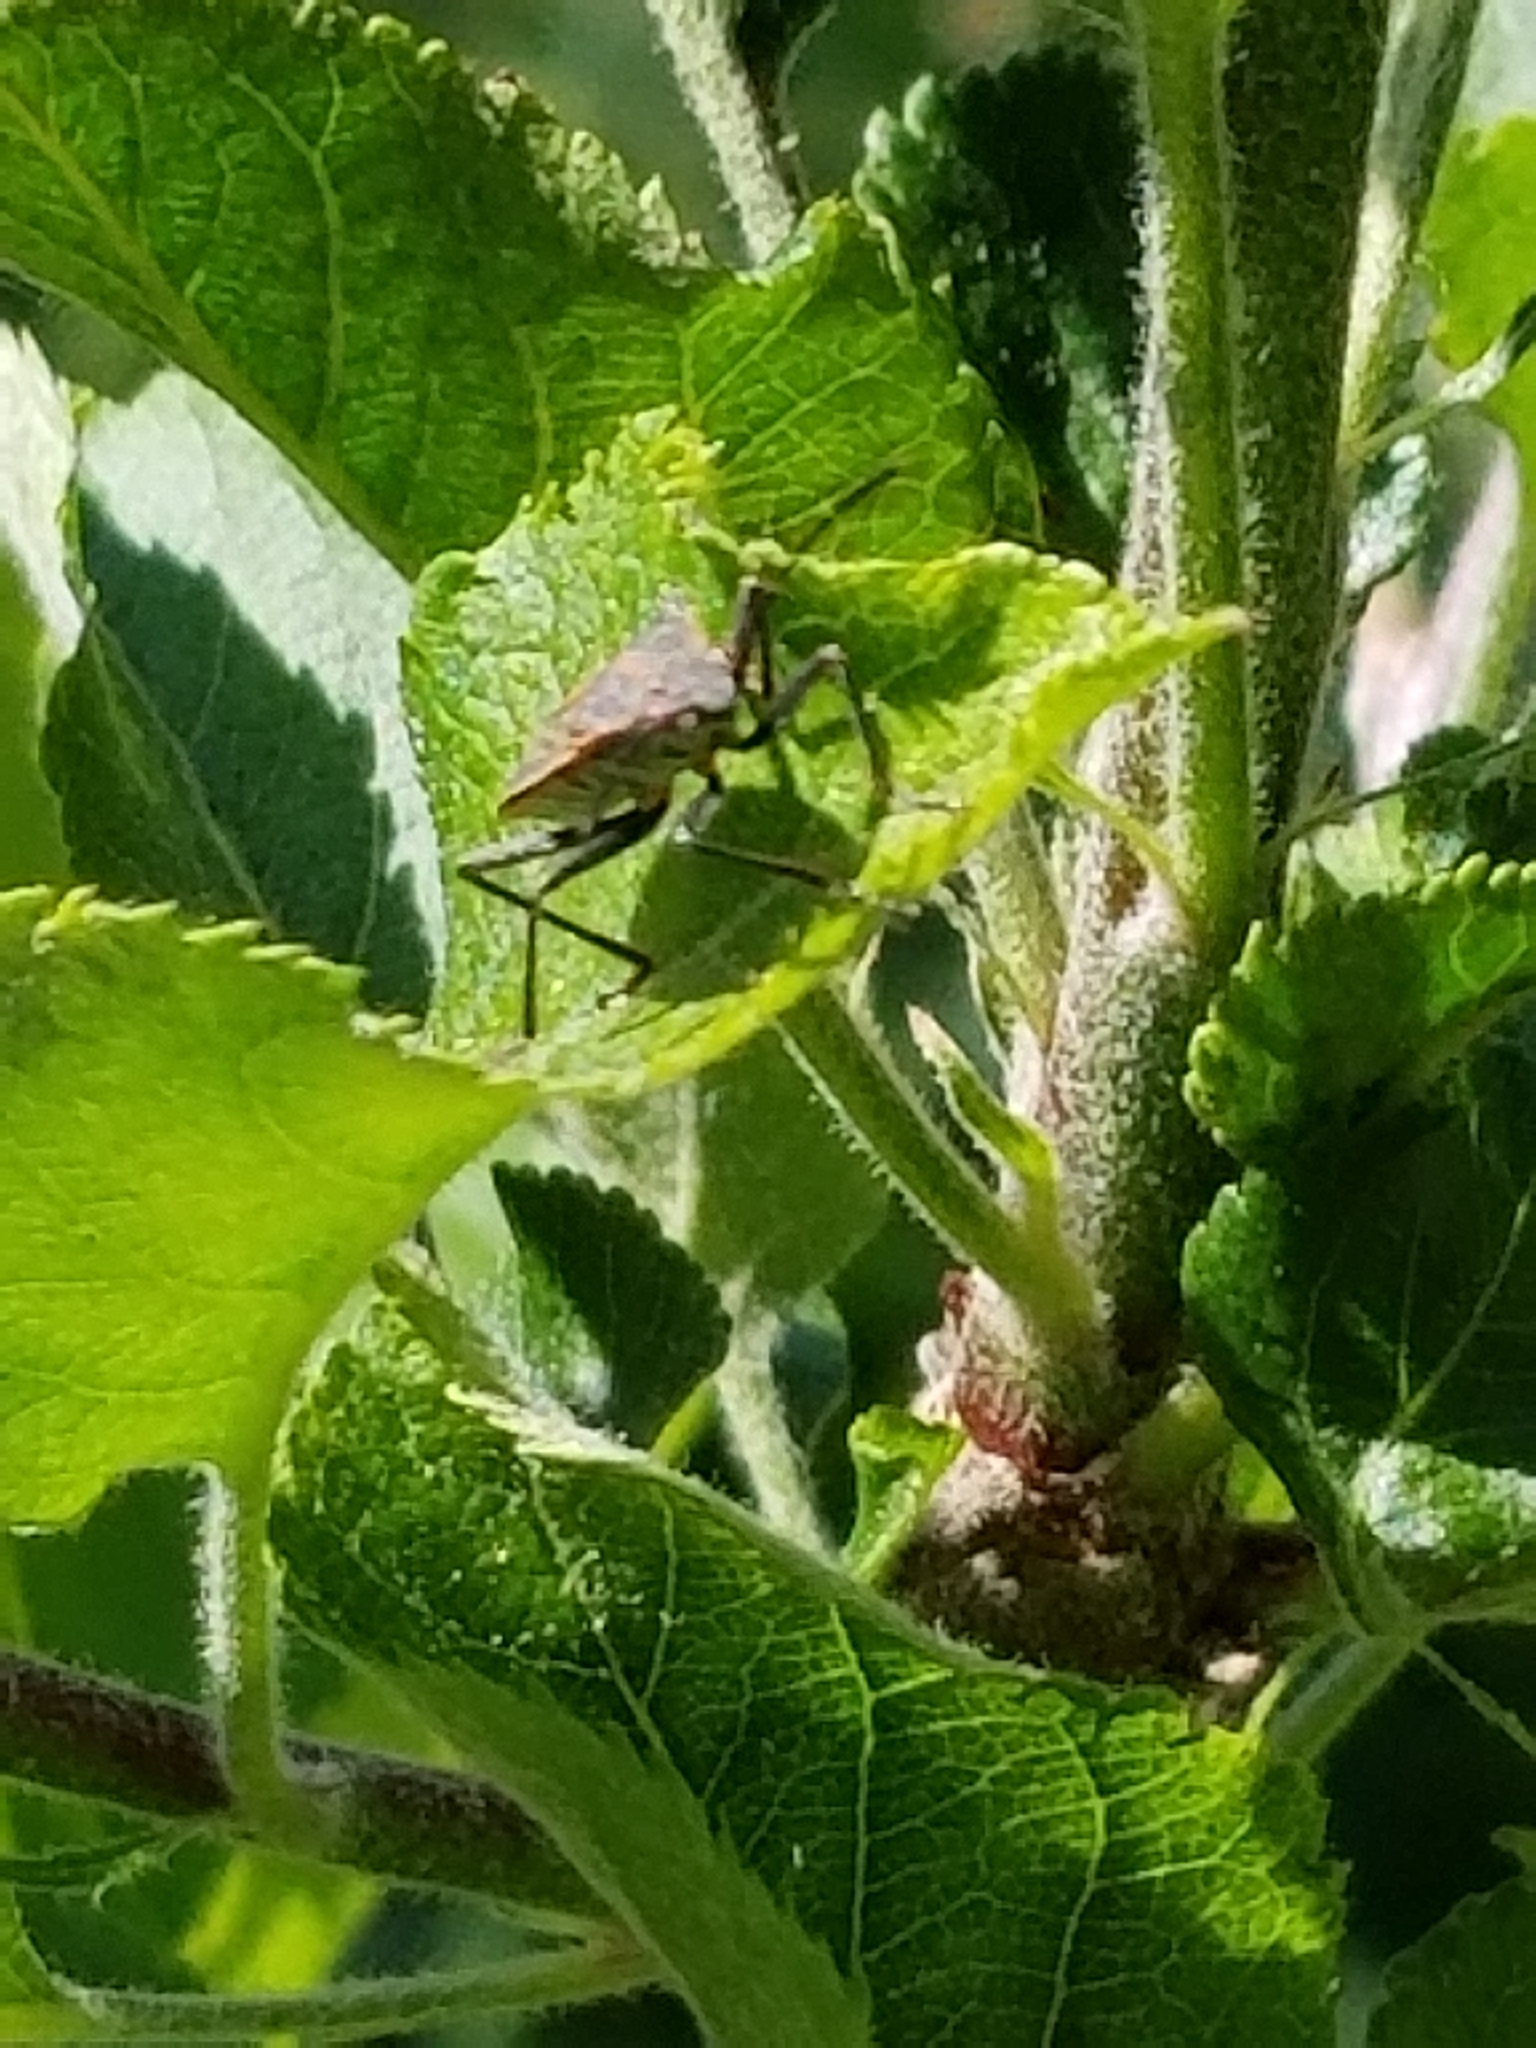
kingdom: Animalia
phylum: Arthropoda
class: Insecta
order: Hemiptera
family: Rhopalidae
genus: Boisea
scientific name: Boisea rubrolineata
